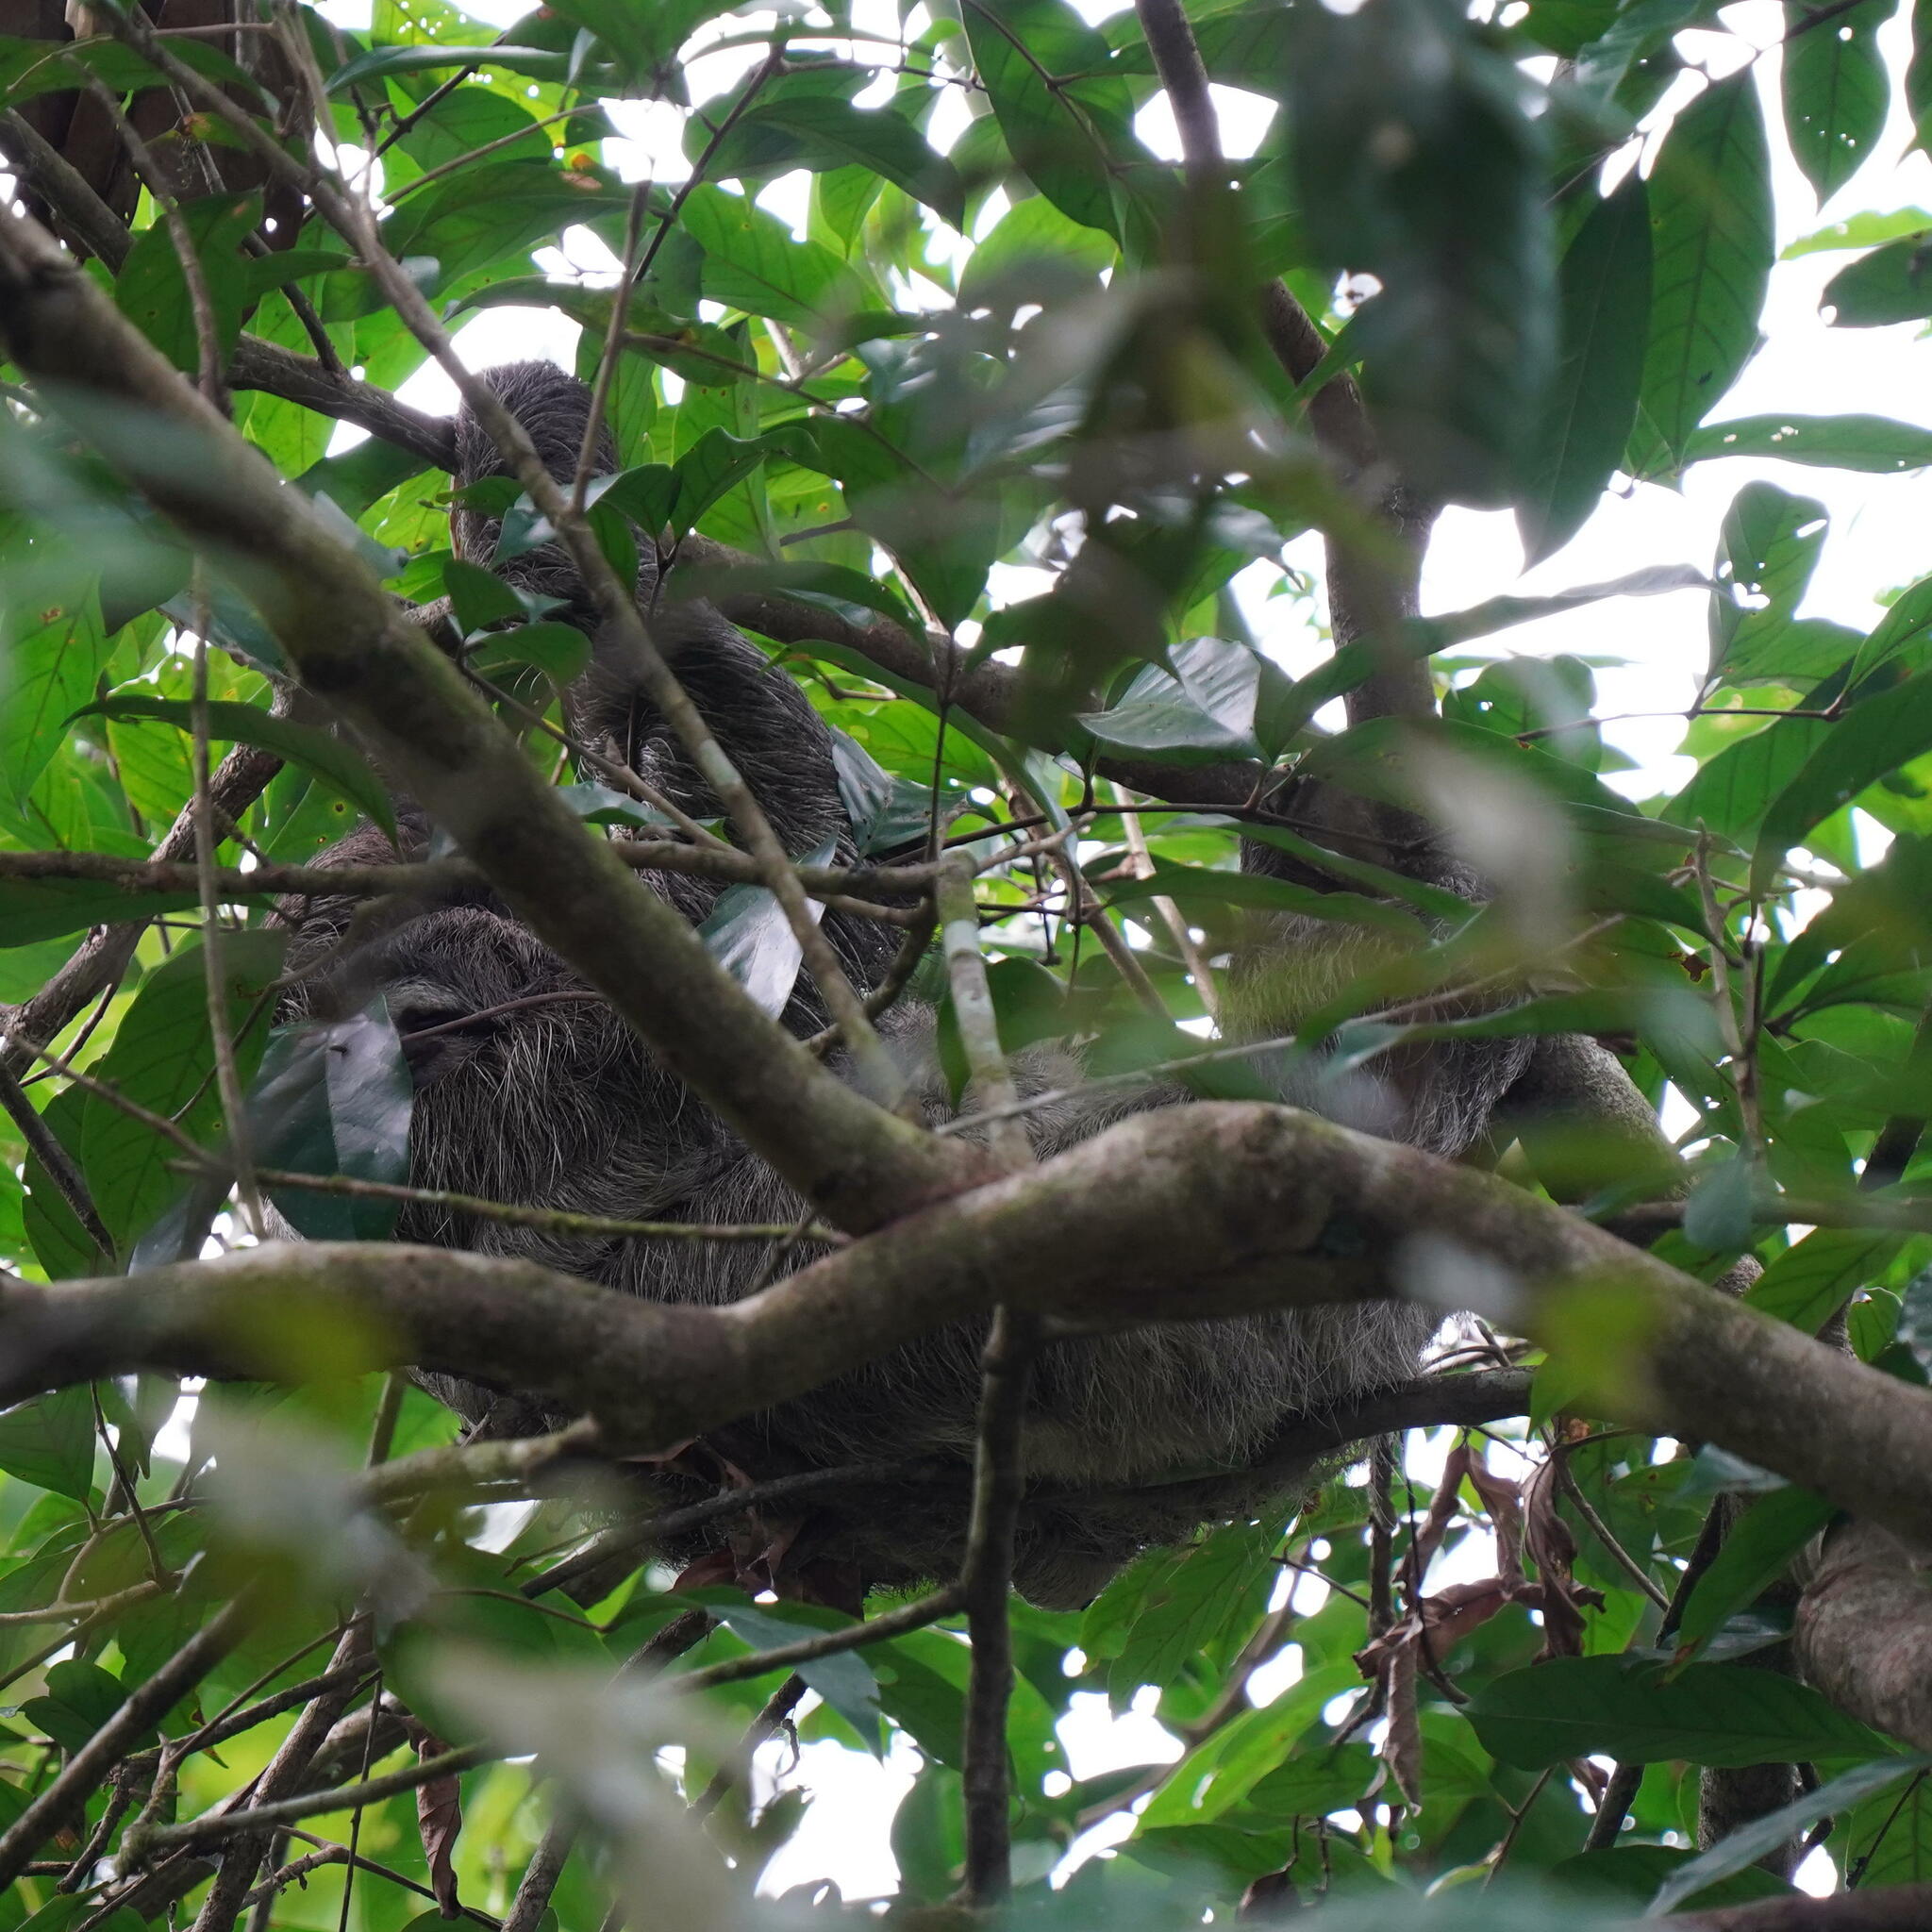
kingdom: Animalia
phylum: Chordata
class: Mammalia
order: Pilosa
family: Bradypodidae
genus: Bradypus
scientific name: Bradypus variegatus
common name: Brown-throated three-toed sloth
